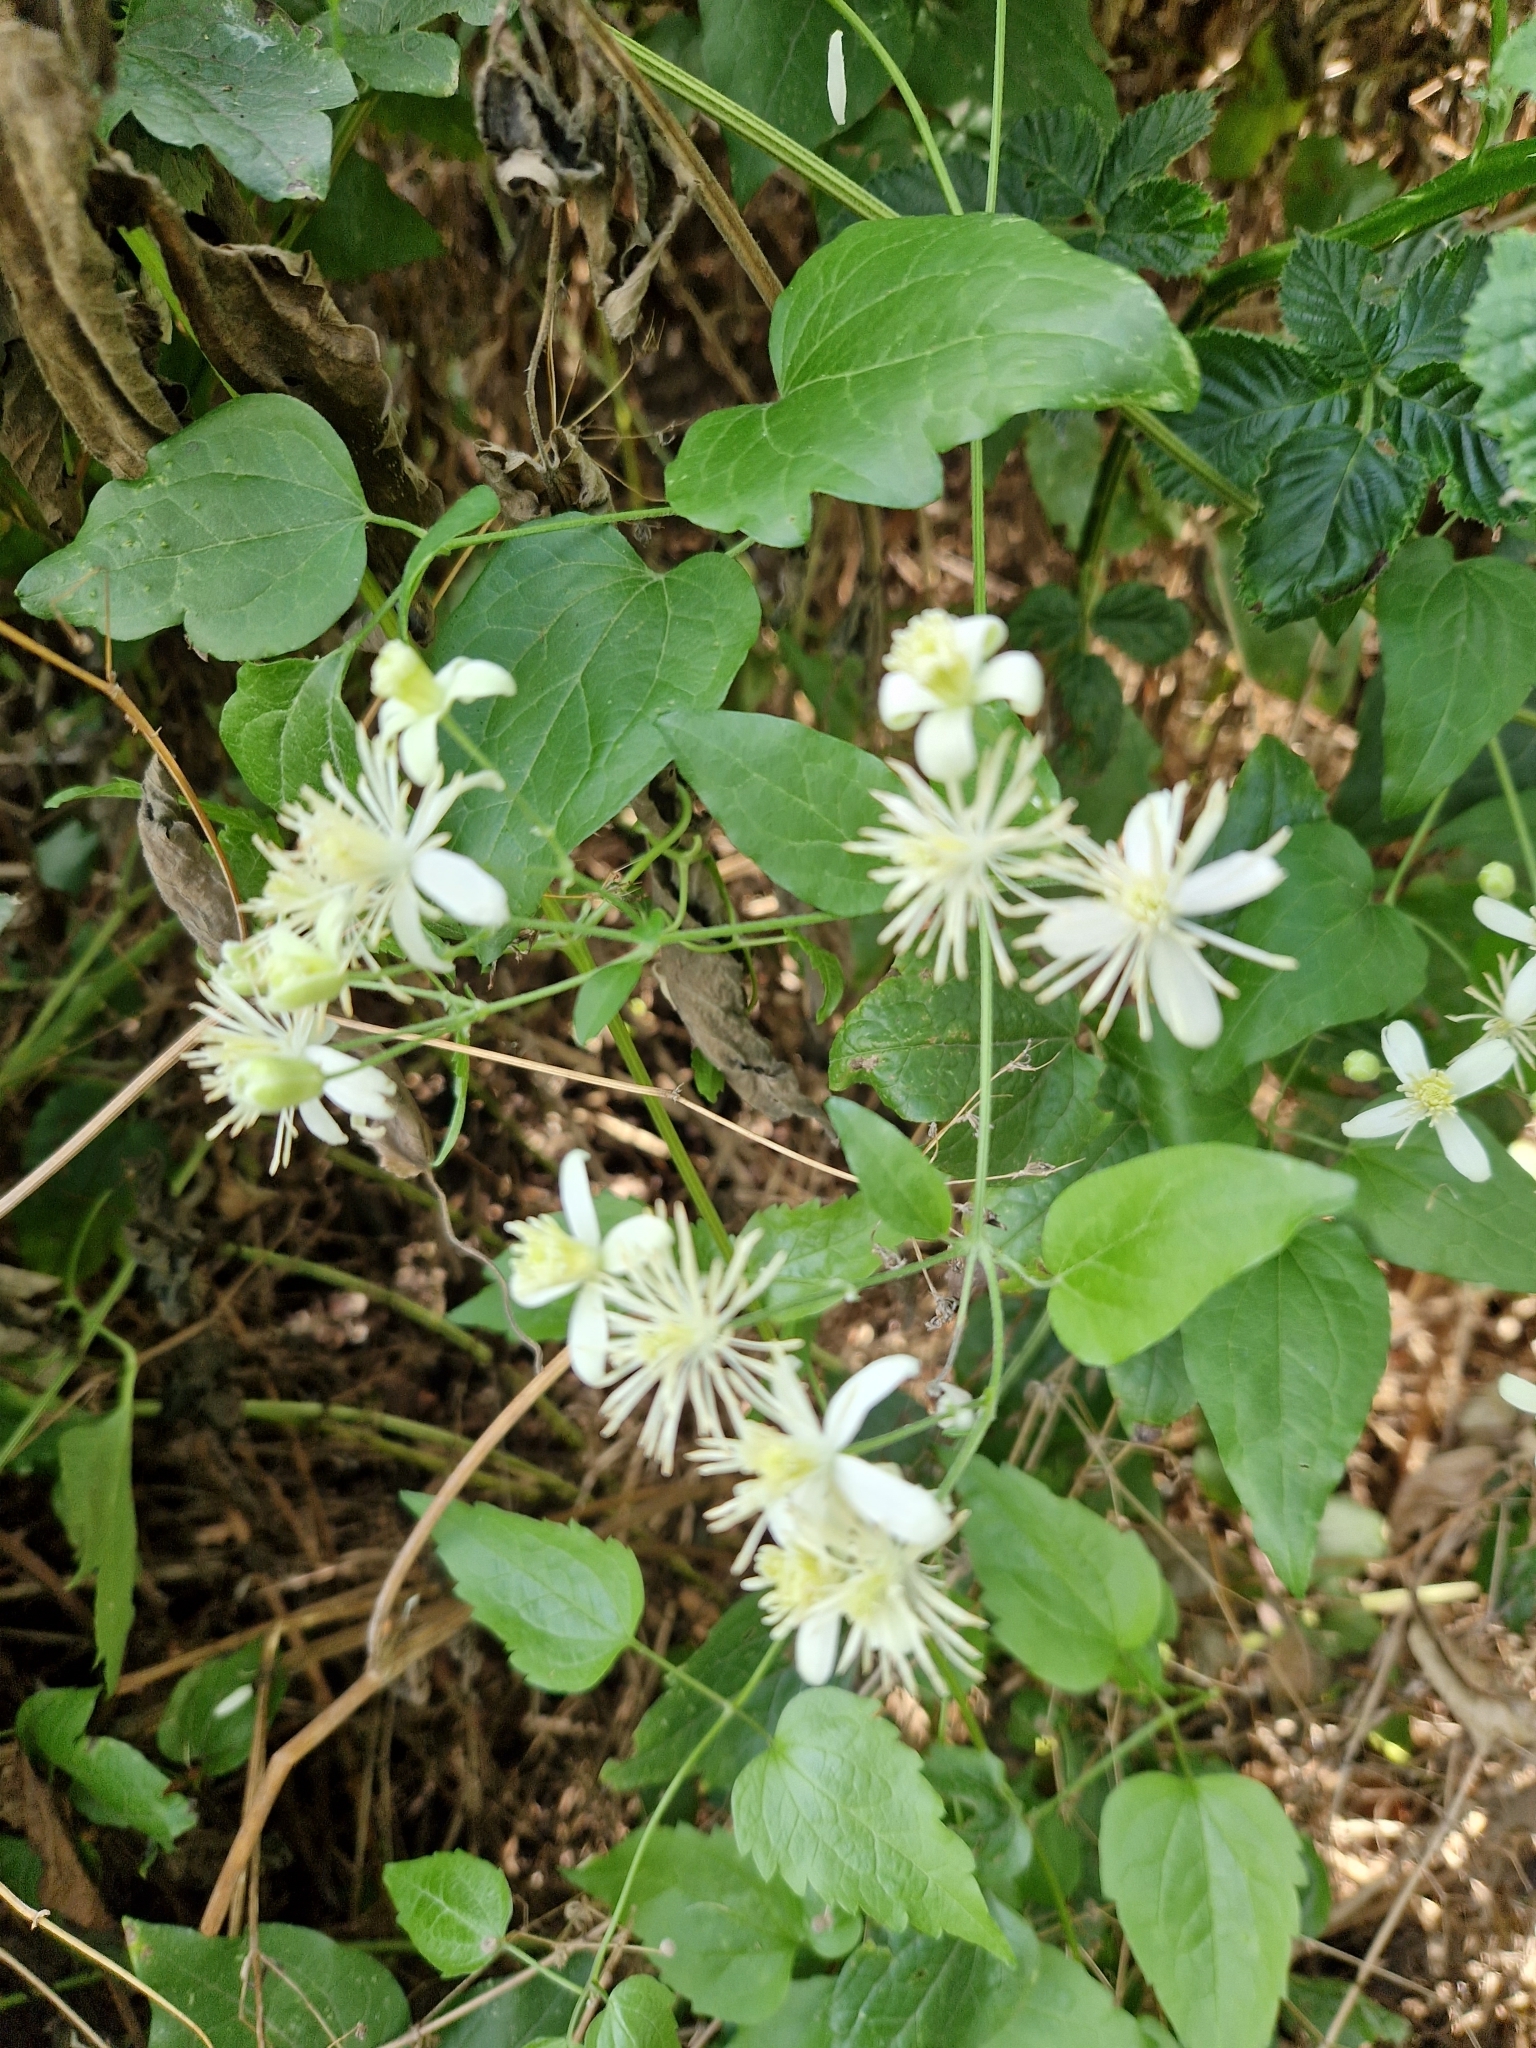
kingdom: Plantae
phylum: Tracheophyta
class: Magnoliopsida
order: Ranunculales
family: Ranunculaceae
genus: Clematis
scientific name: Clematis vitalba
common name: Evergreen clematis
